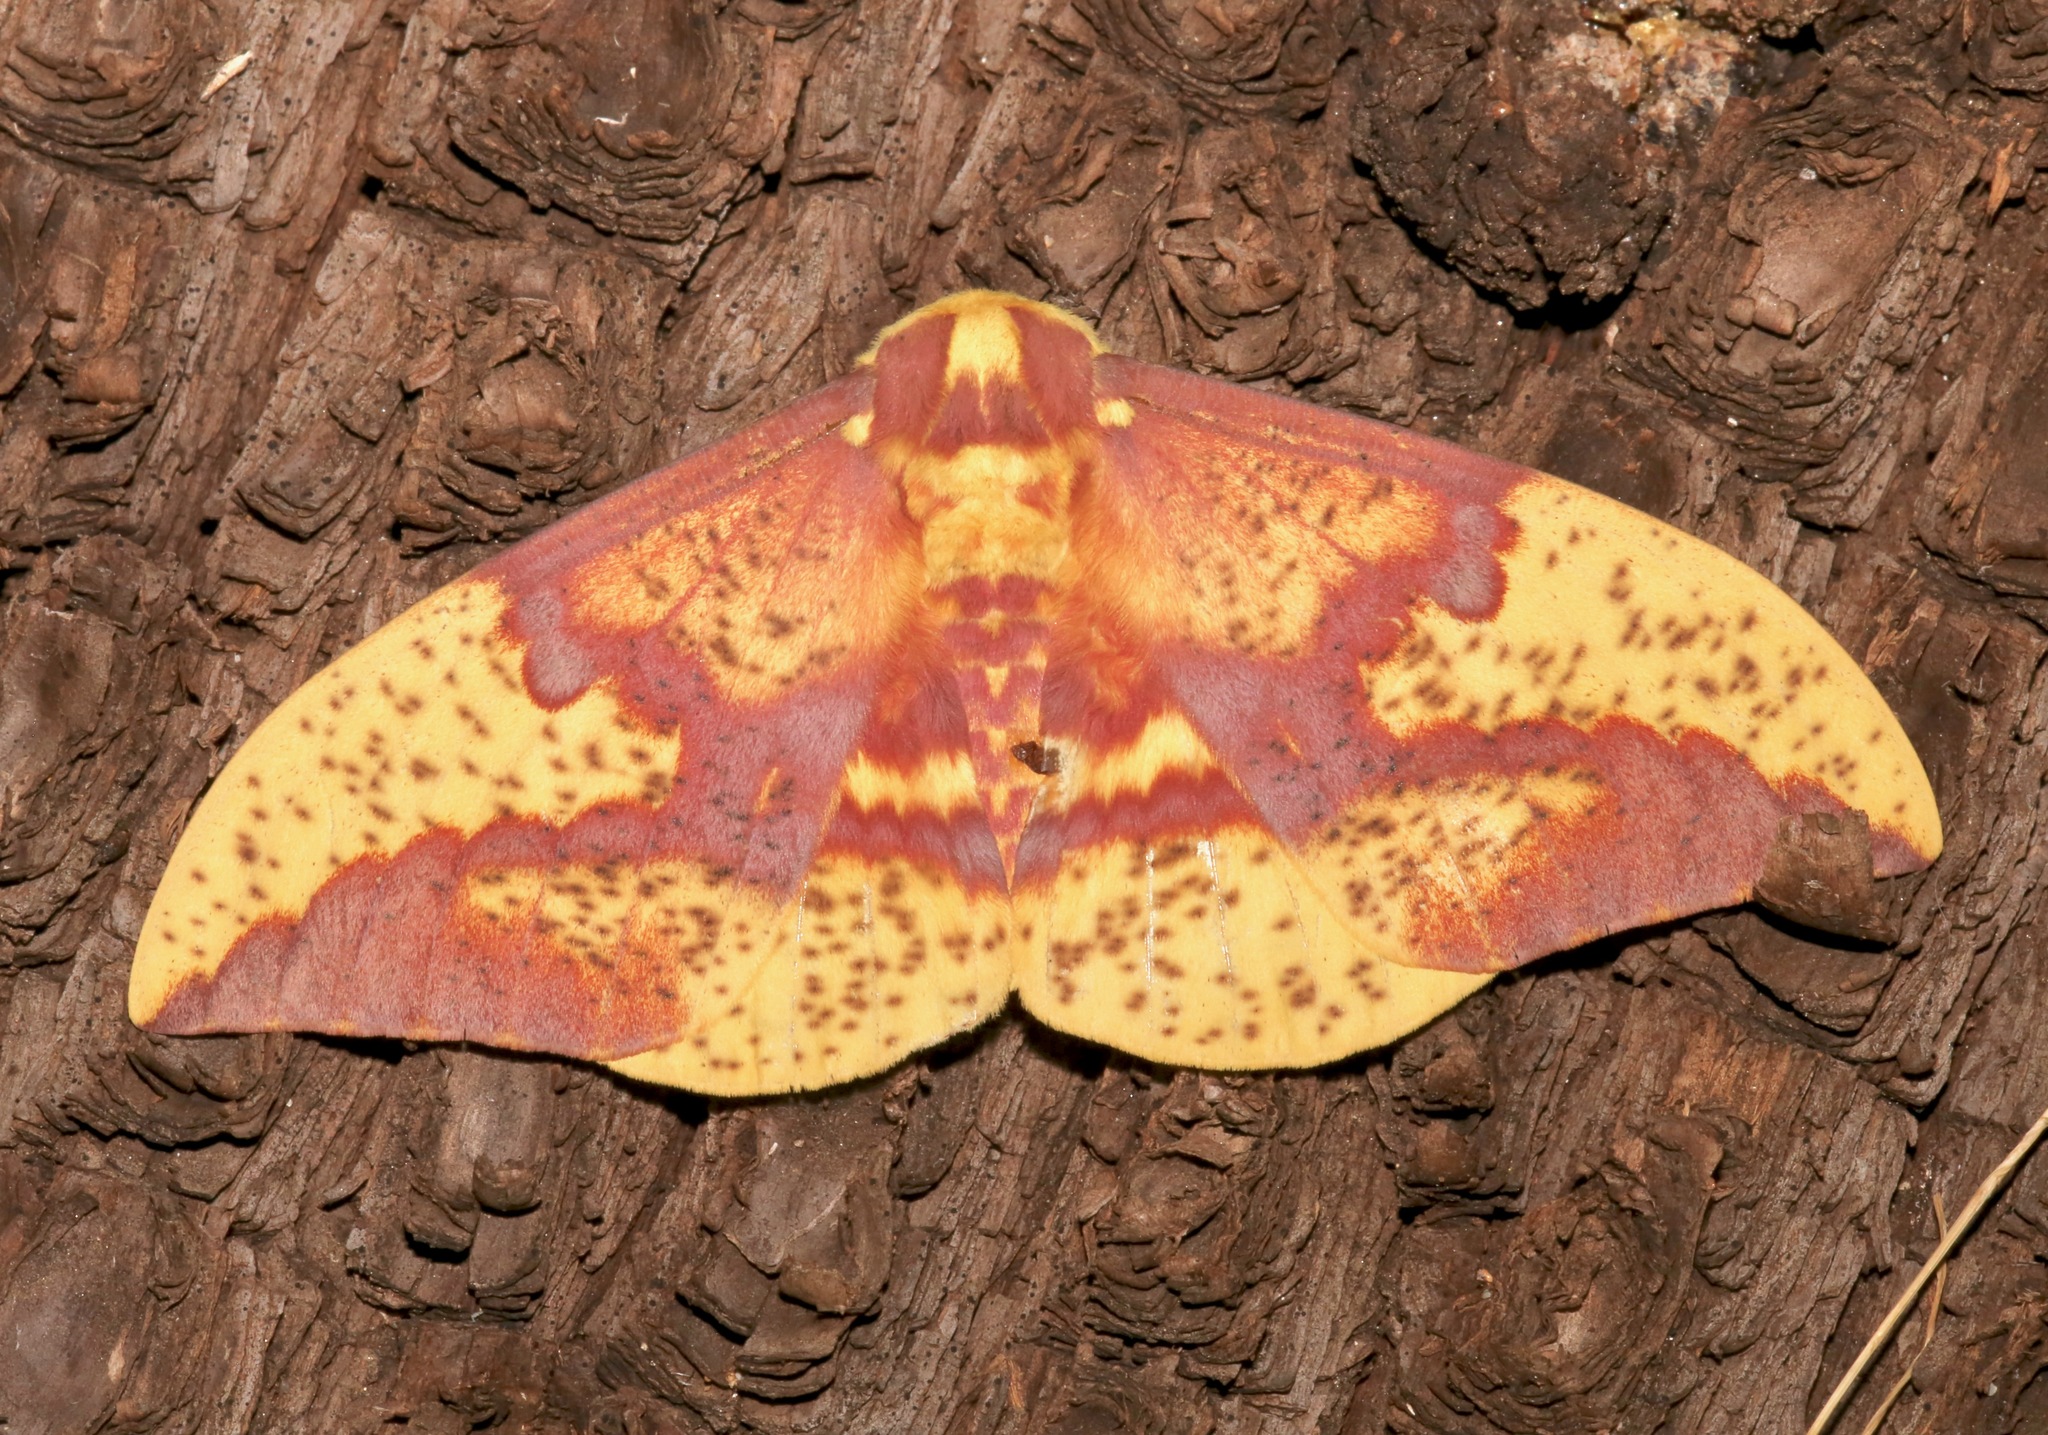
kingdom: Animalia
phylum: Arthropoda
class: Insecta
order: Lepidoptera
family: Saturniidae
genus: Eacles
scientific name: Eacles oslari
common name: Oslar's imperial moth
